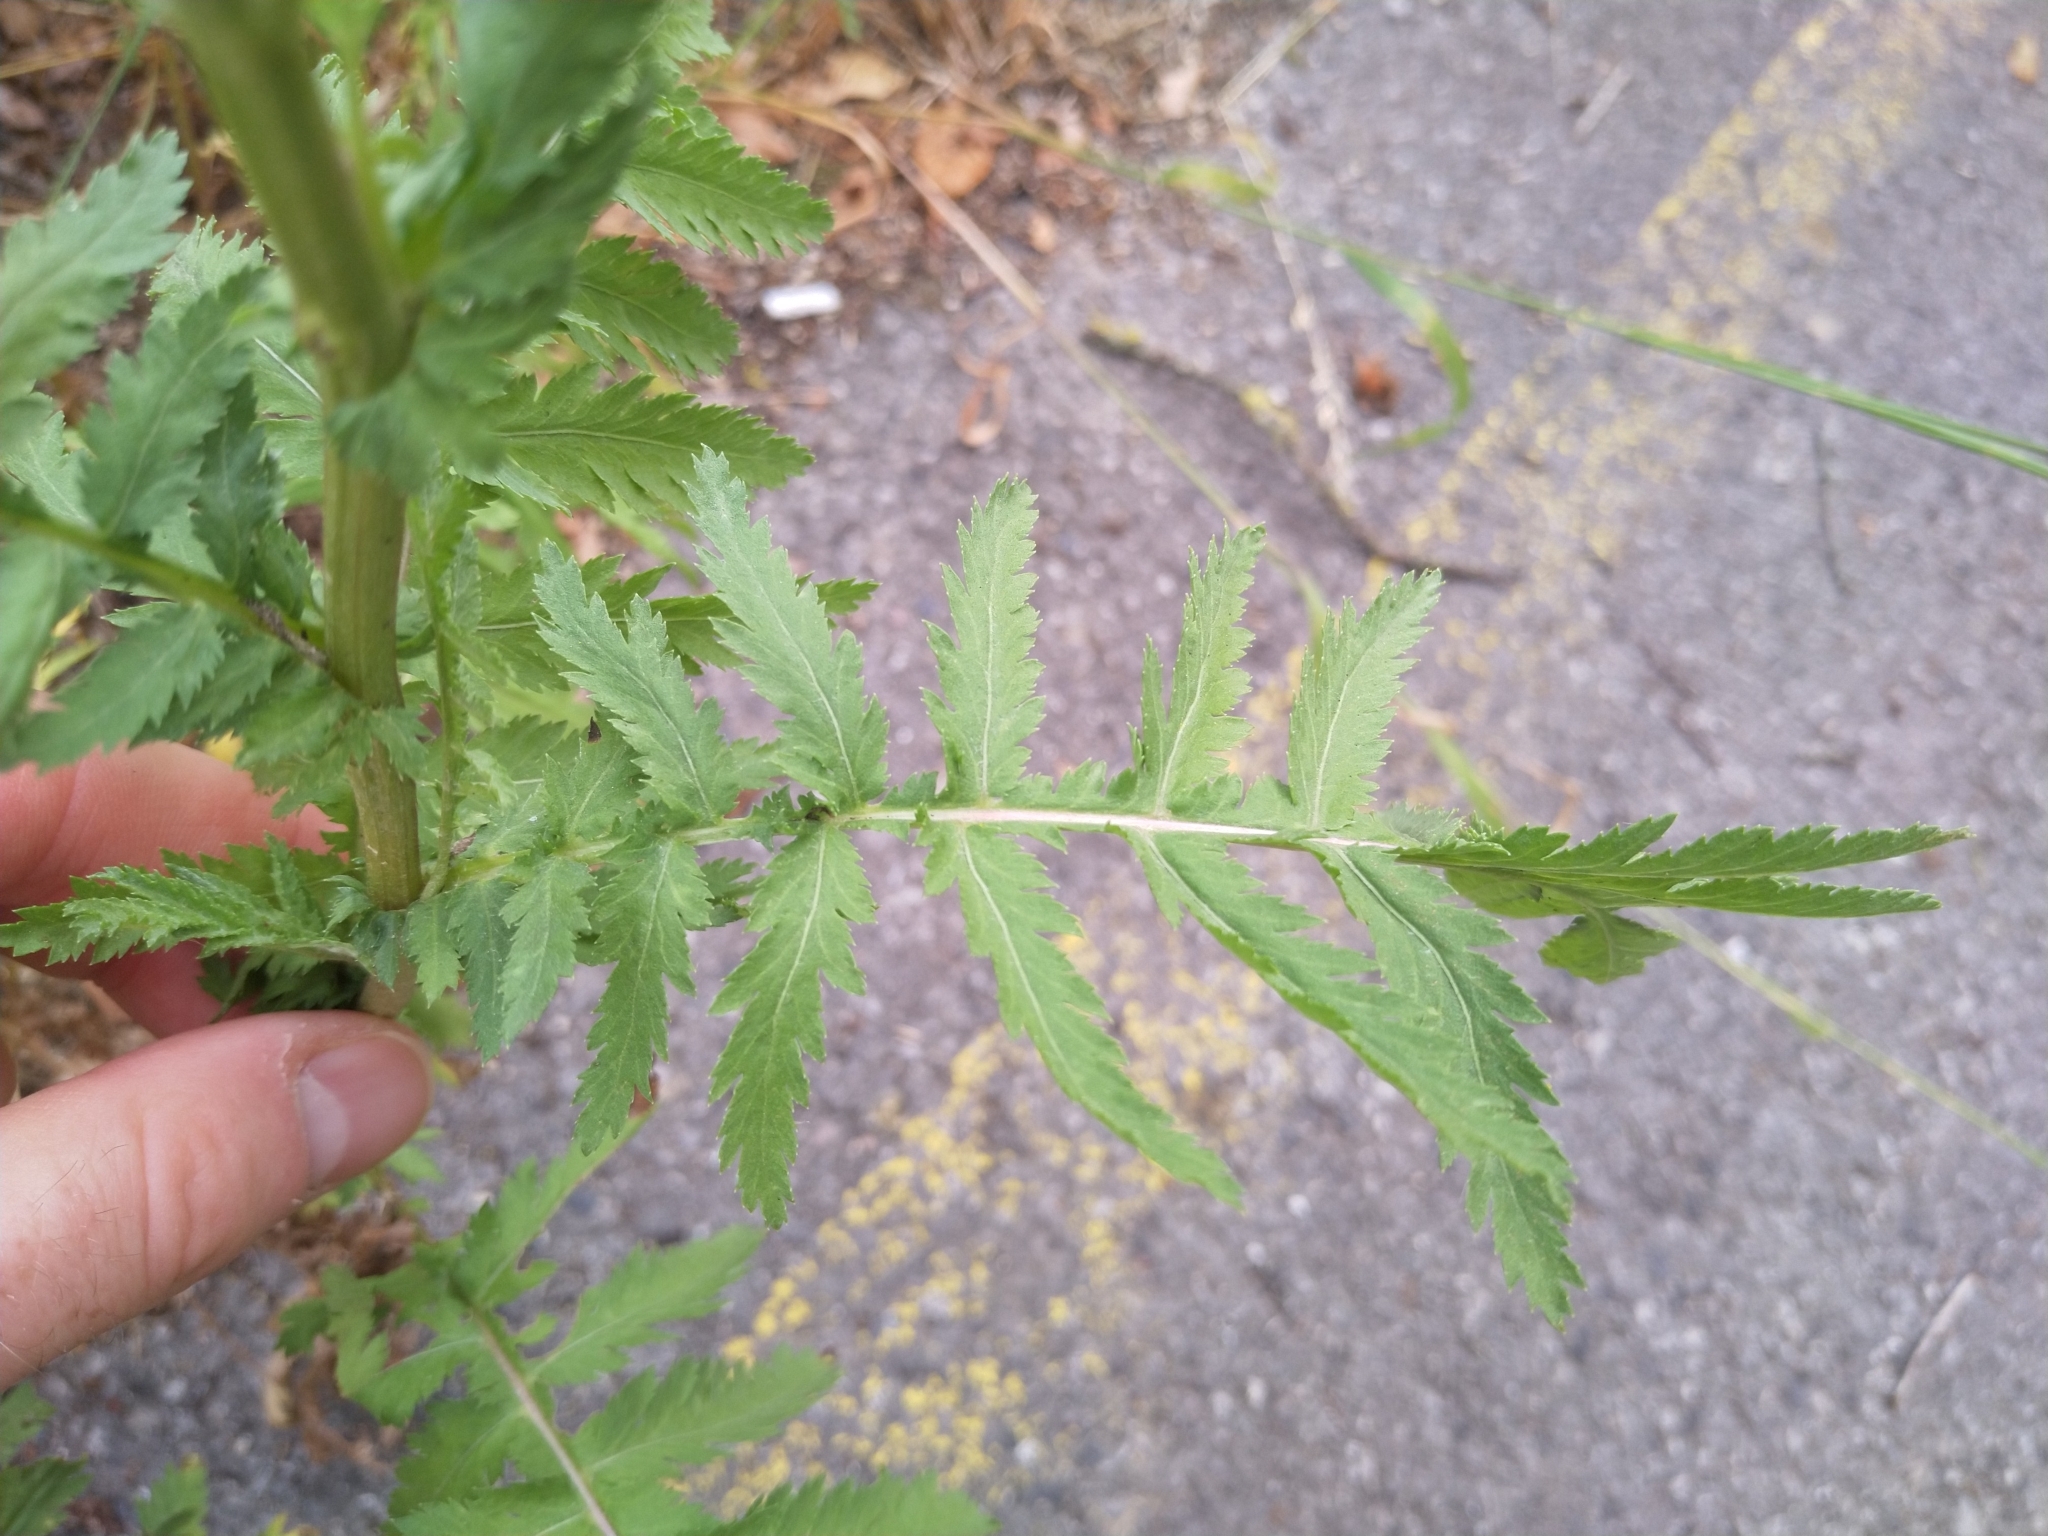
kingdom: Plantae
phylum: Tracheophyta
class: Magnoliopsida
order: Asterales
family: Asteraceae
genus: Tanacetum
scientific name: Tanacetum vulgare
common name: Common tansy
